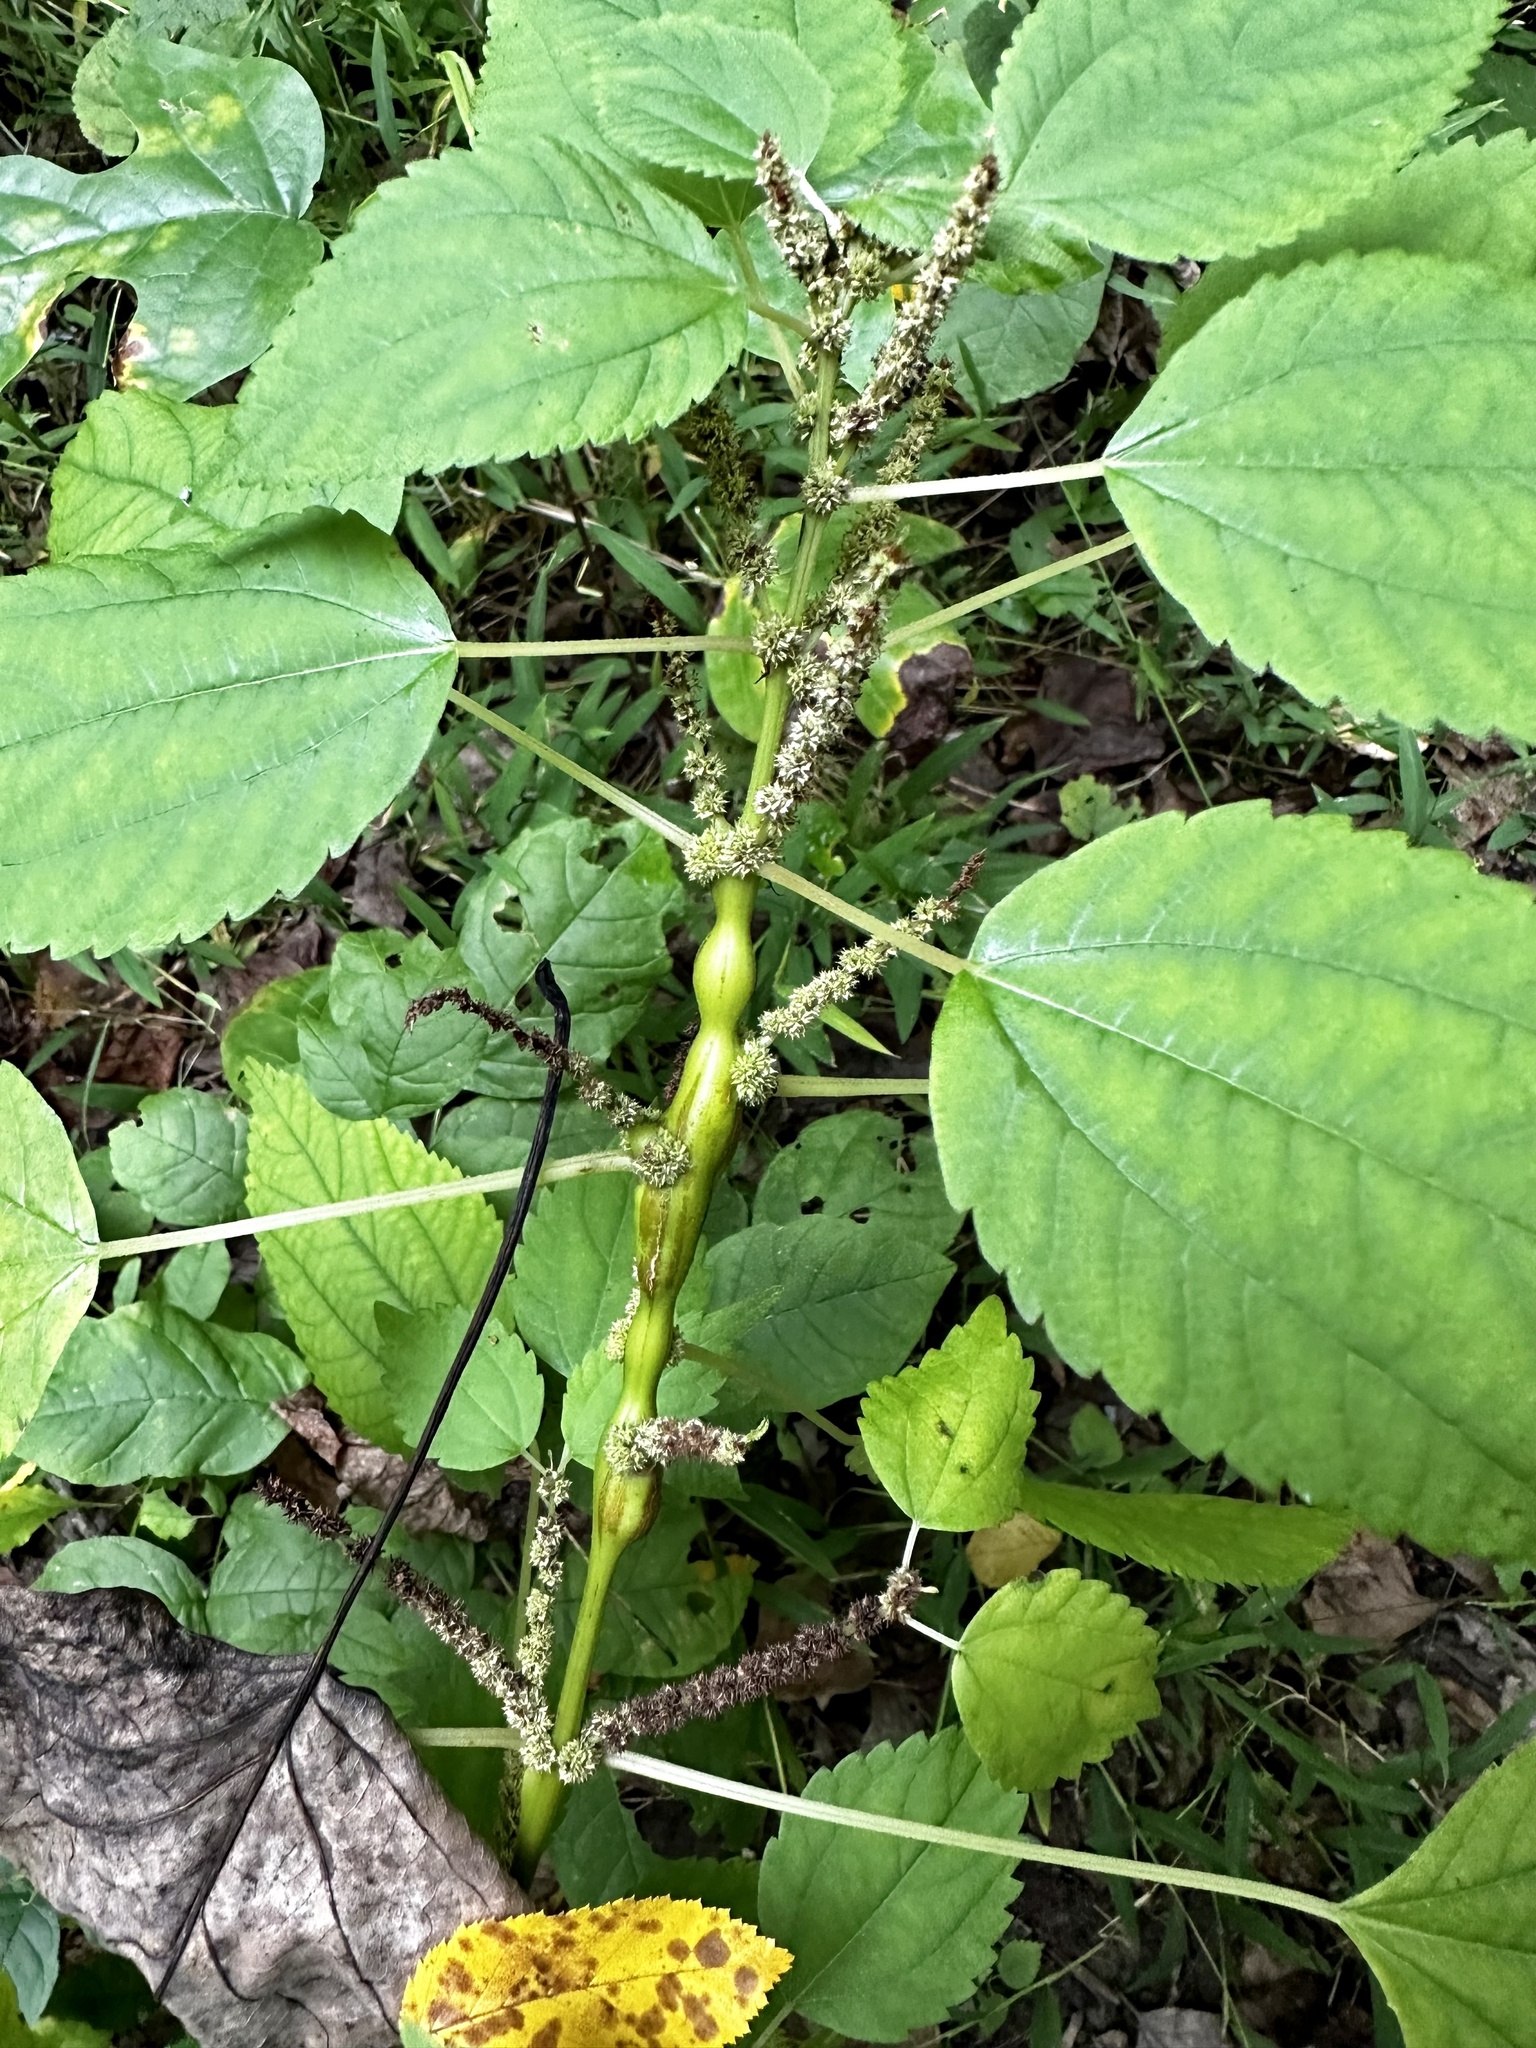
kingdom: Animalia
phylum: Arthropoda
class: Insecta
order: Diptera
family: Cecidomyiidae
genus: Neolasioptera
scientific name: Neolasioptera boehmeriae
